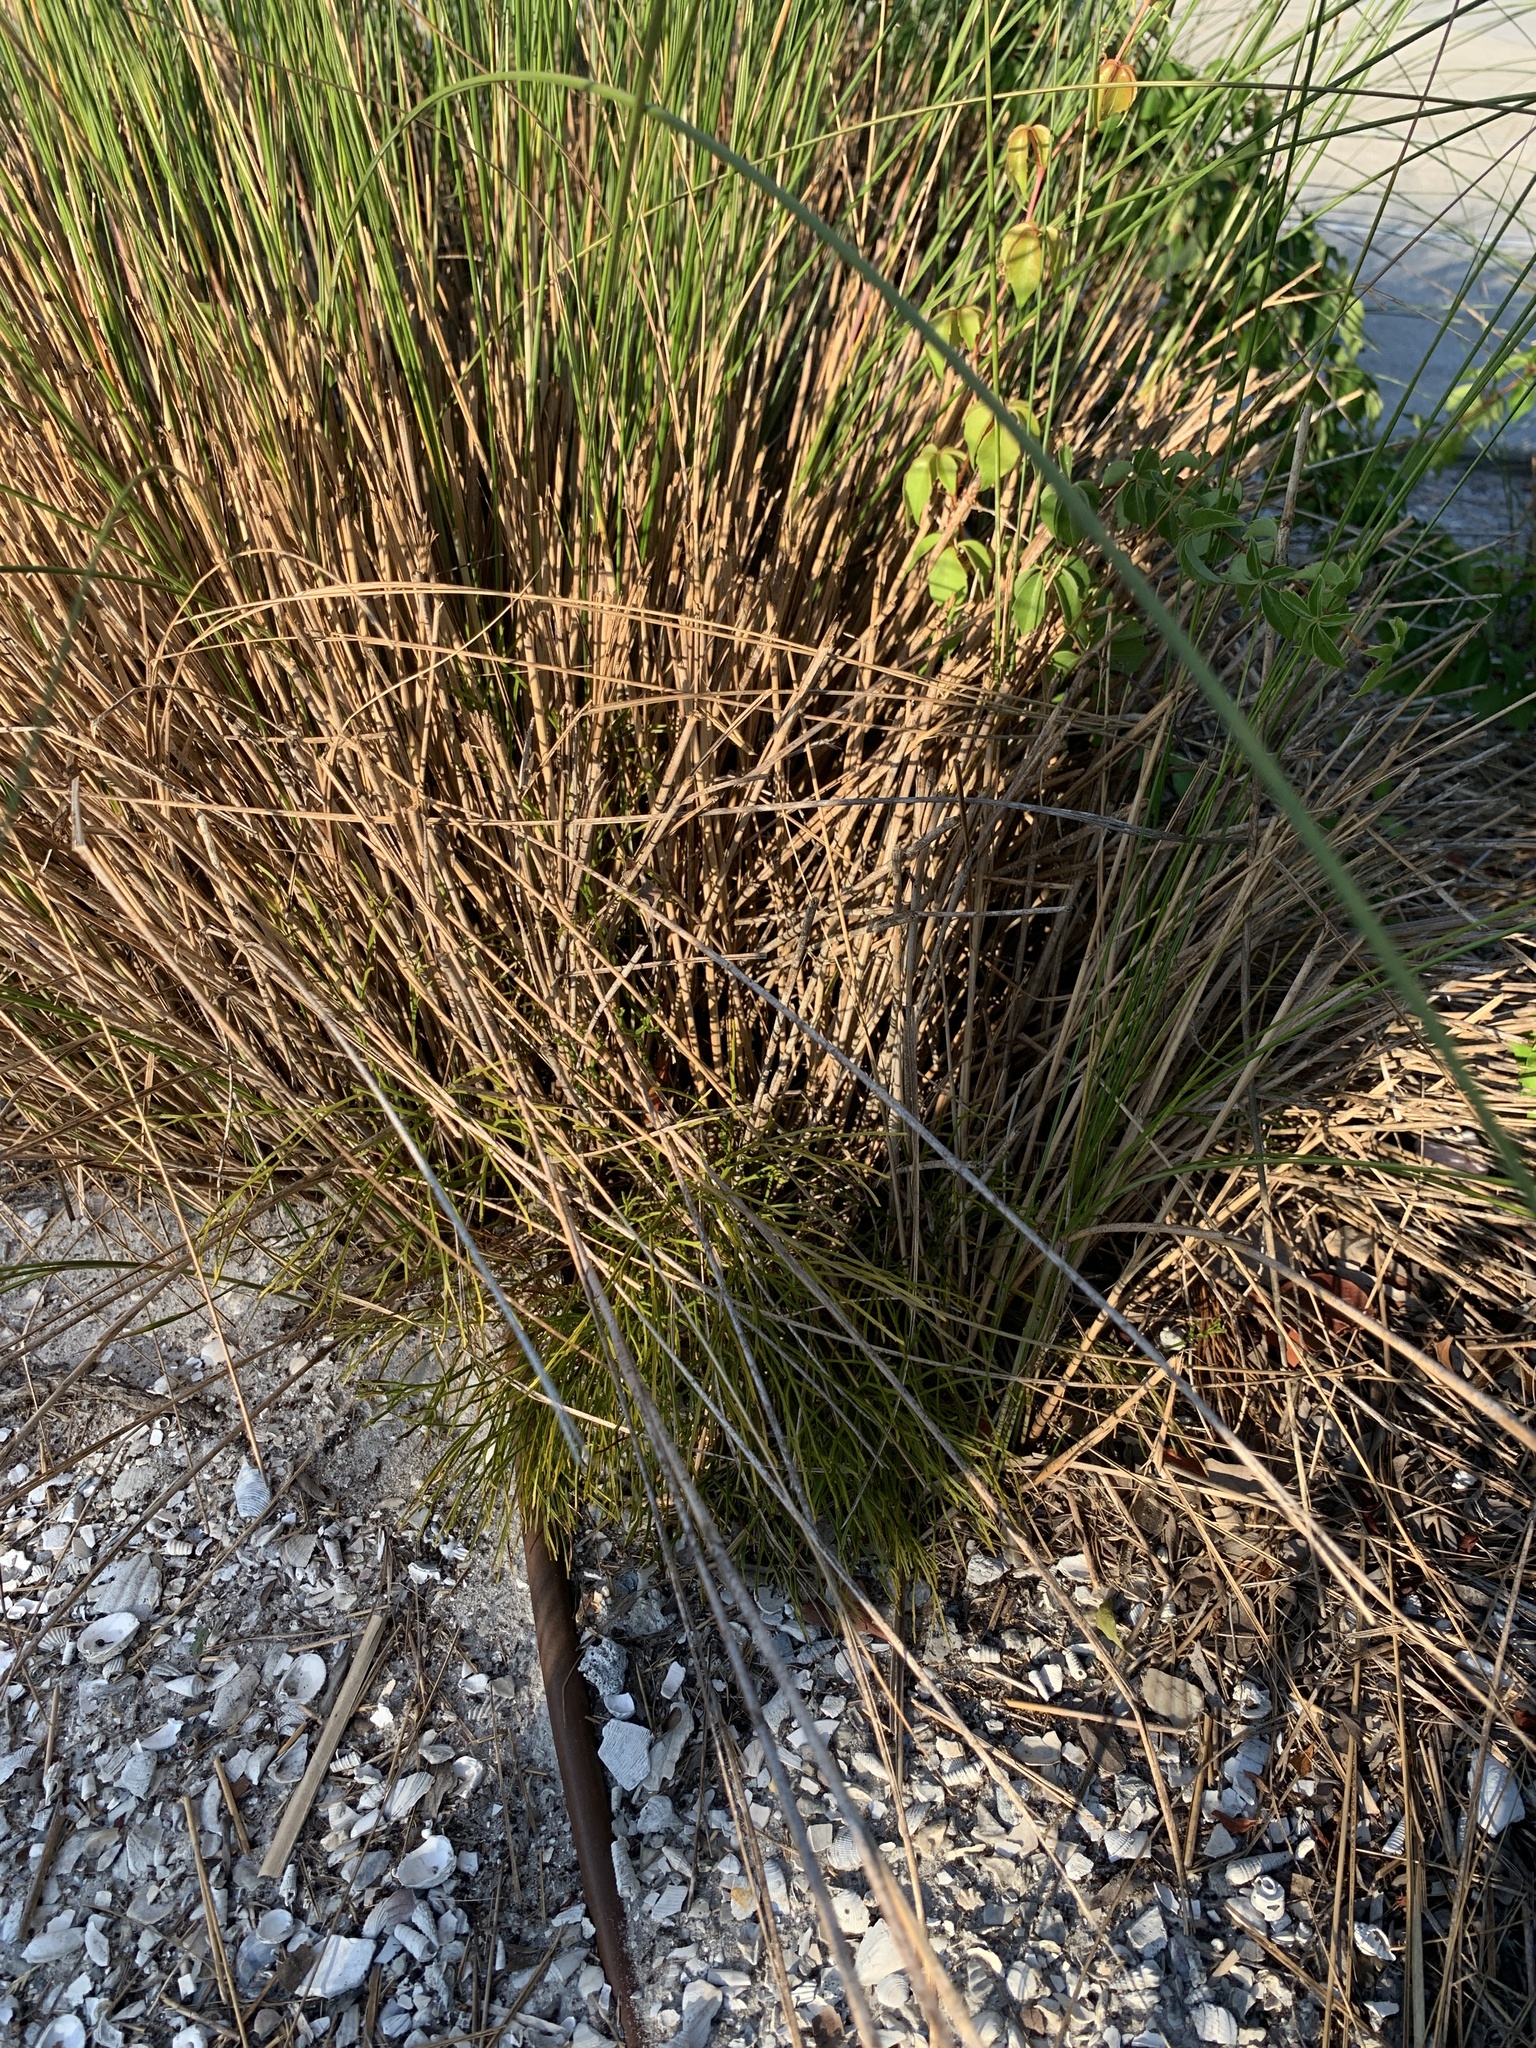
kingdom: Plantae
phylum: Tracheophyta
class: Polypodiopsida
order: Psilotales
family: Psilotaceae
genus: Psilotum
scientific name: Psilotum nudum
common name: Skeleton fork fern
